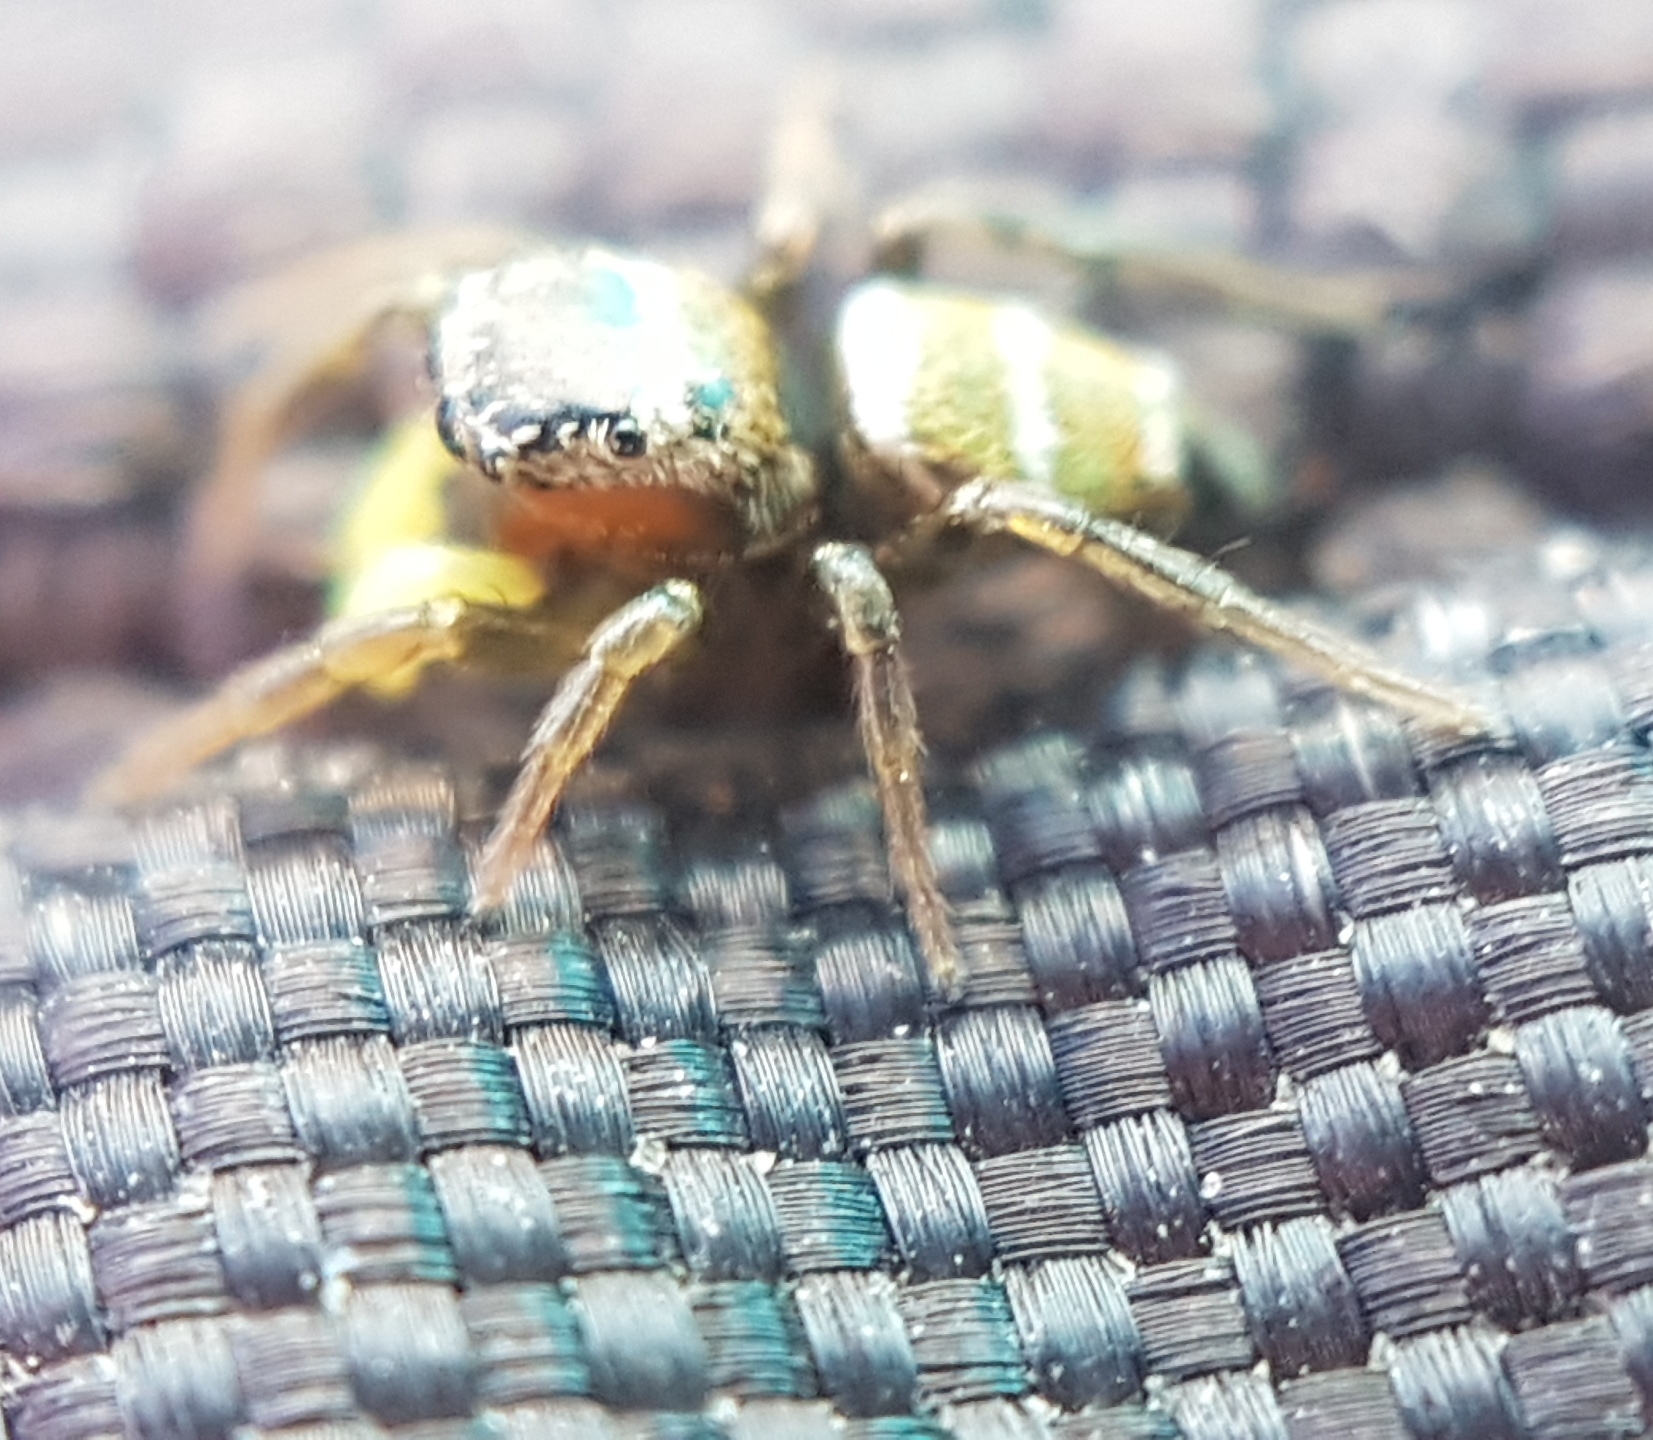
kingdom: Animalia
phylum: Arthropoda
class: Arachnida
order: Araneae
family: Salticidae
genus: Heliophanus
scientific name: Heliophanus tribulosus
